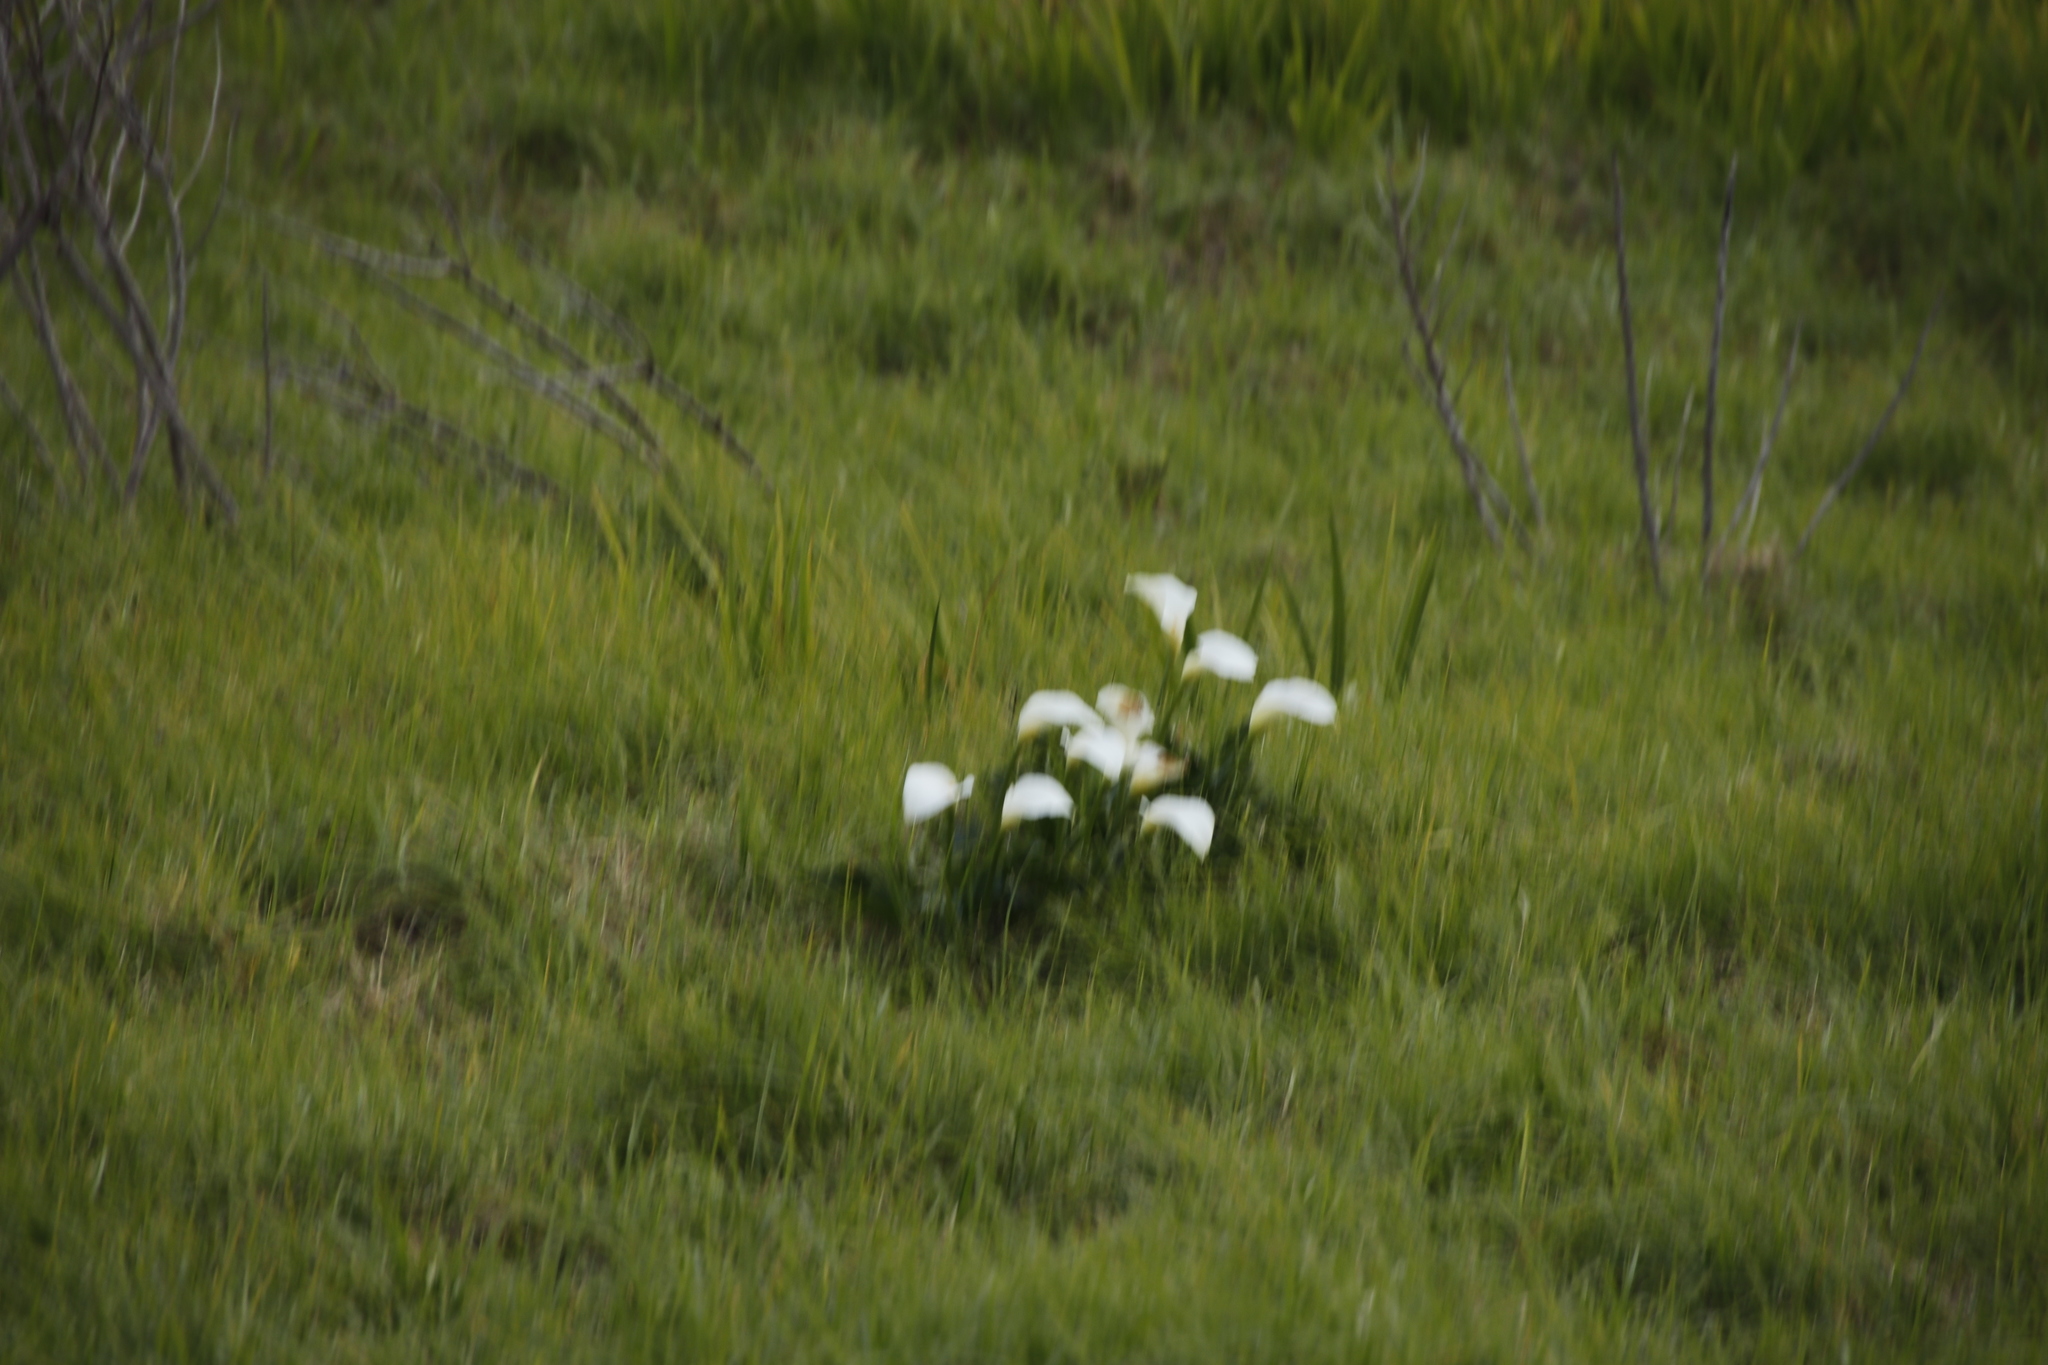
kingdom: Plantae
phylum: Tracheophyta
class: Liliopsida
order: Alismatales
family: Araceae
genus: Zantedeschia
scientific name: Zantedeschia aethiopica
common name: Altar-lily
